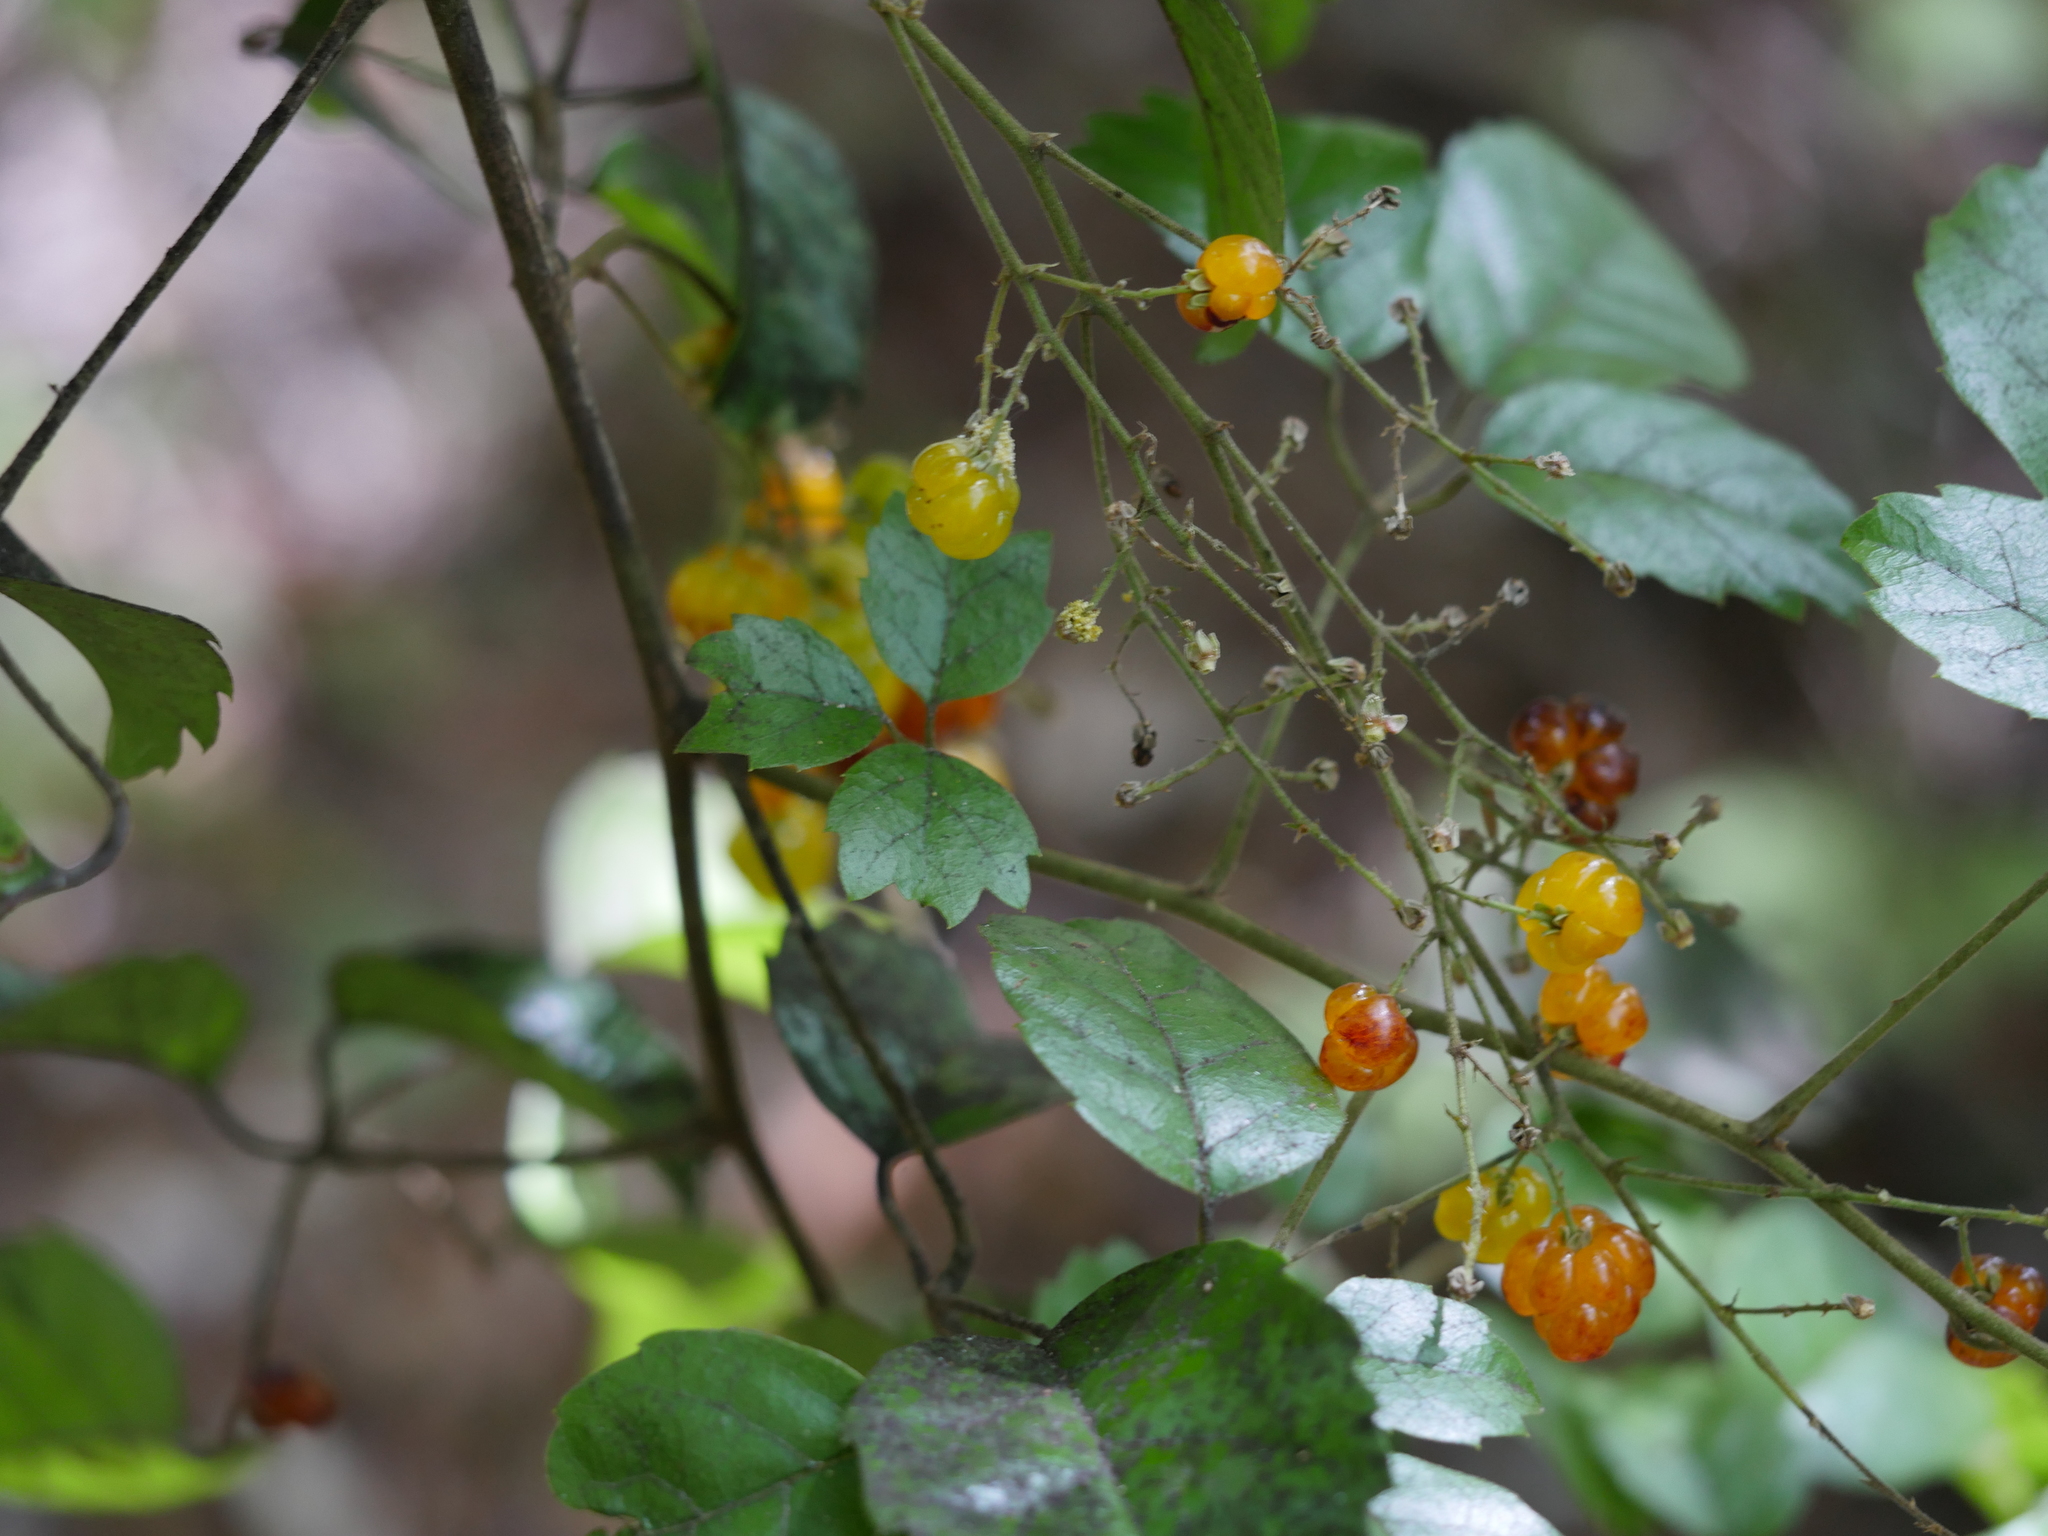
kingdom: Plantae
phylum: Tracheophyta
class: Magnoliopsida
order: Rosales
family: Rosaceae
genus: Rubus
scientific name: Rubus australis
